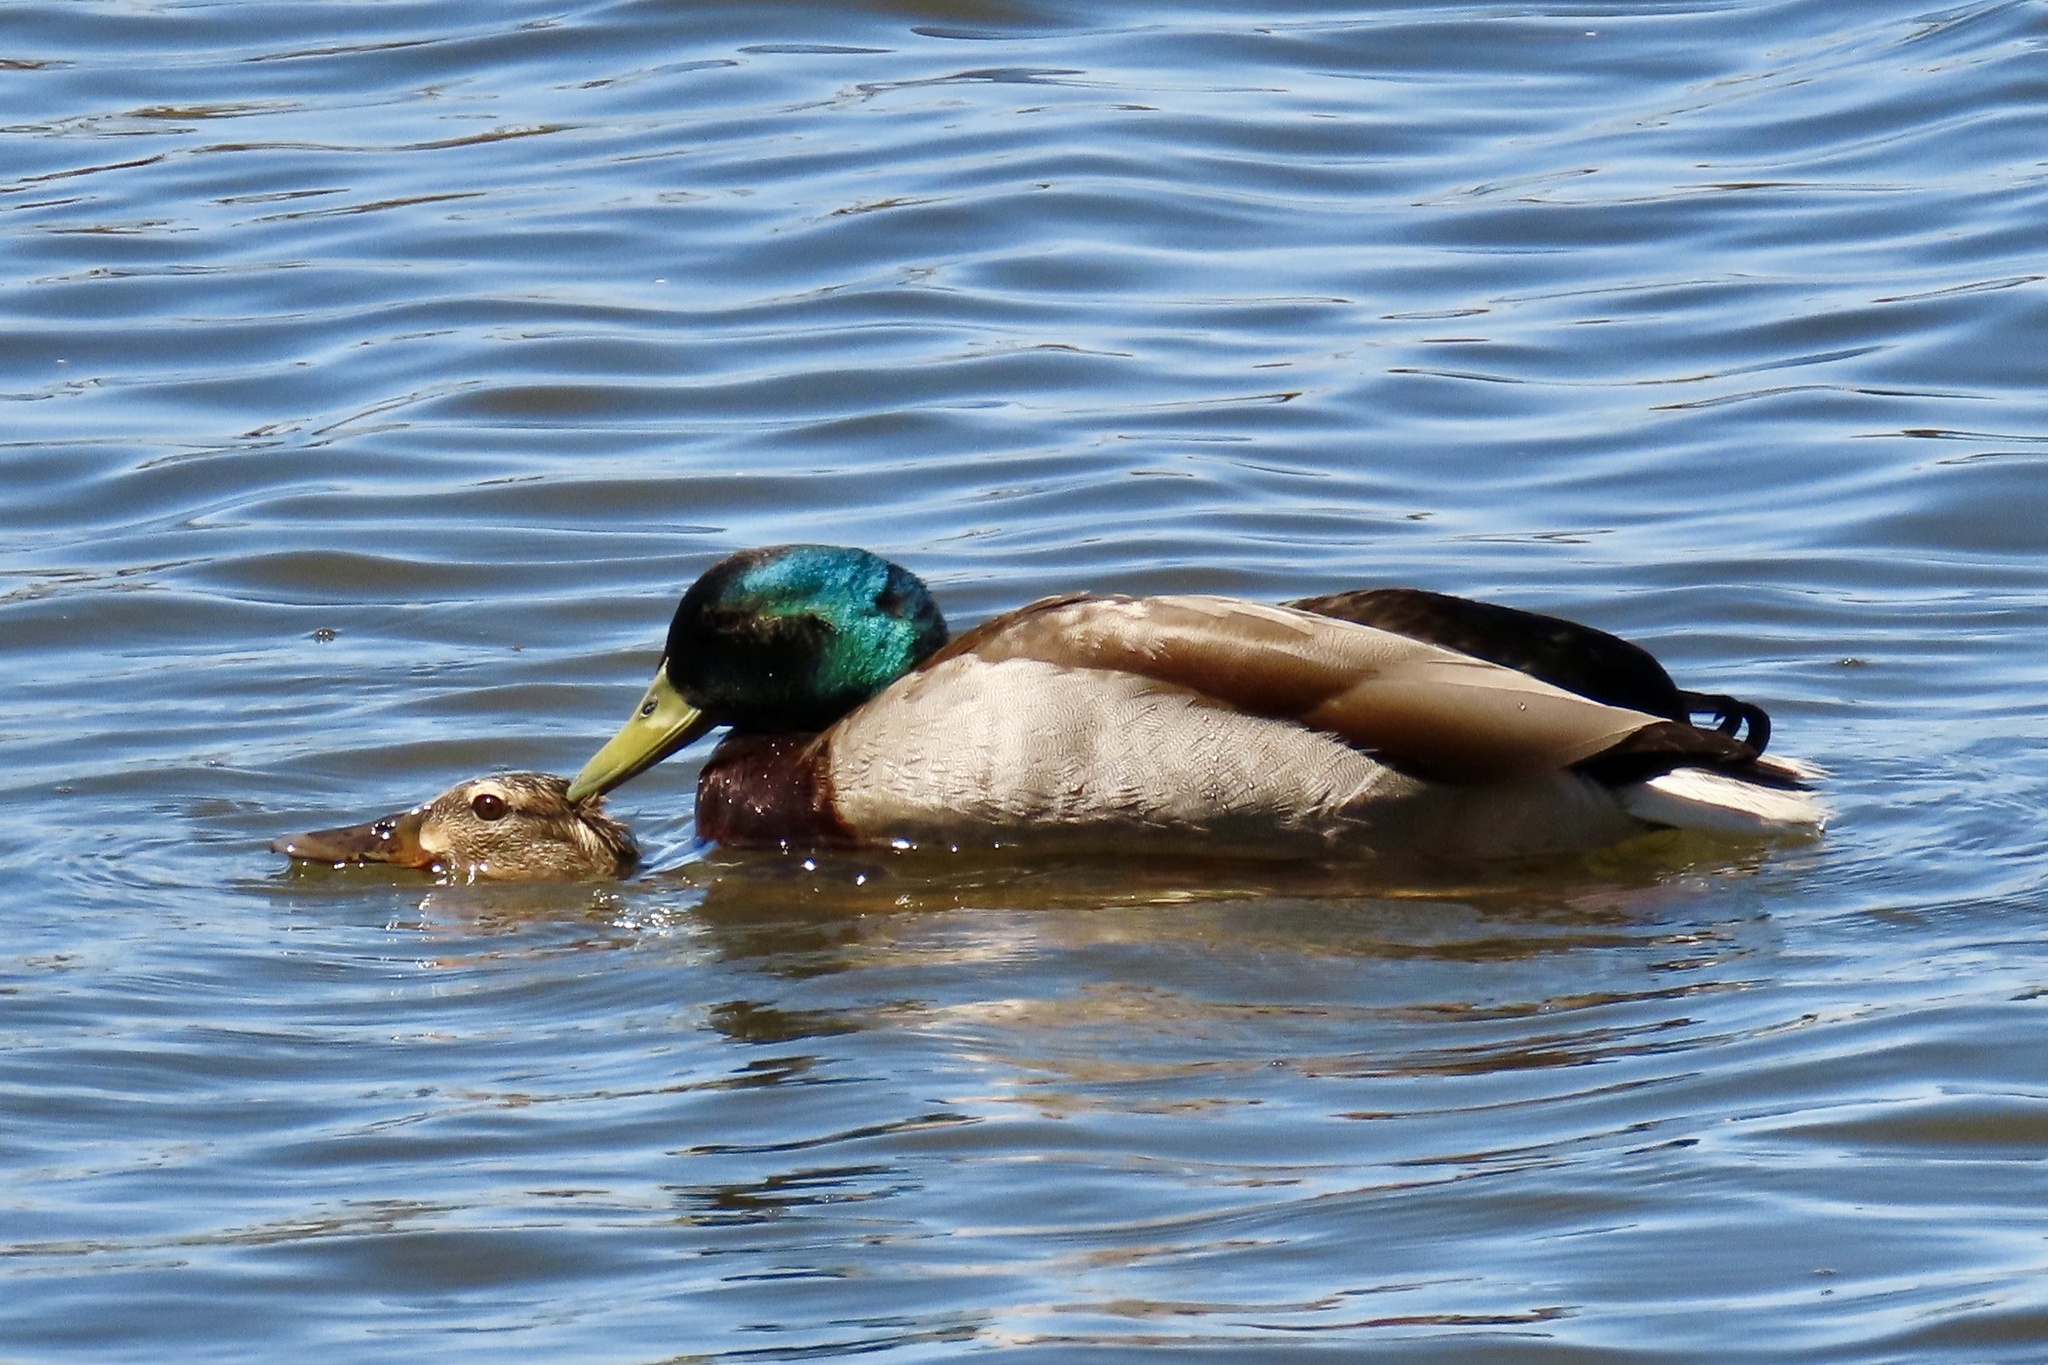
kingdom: Animalia
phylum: Chordata
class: Aves
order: Anseriformes
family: Anatidae
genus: Anas
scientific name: Anas platyrhynchos
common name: Mallard
